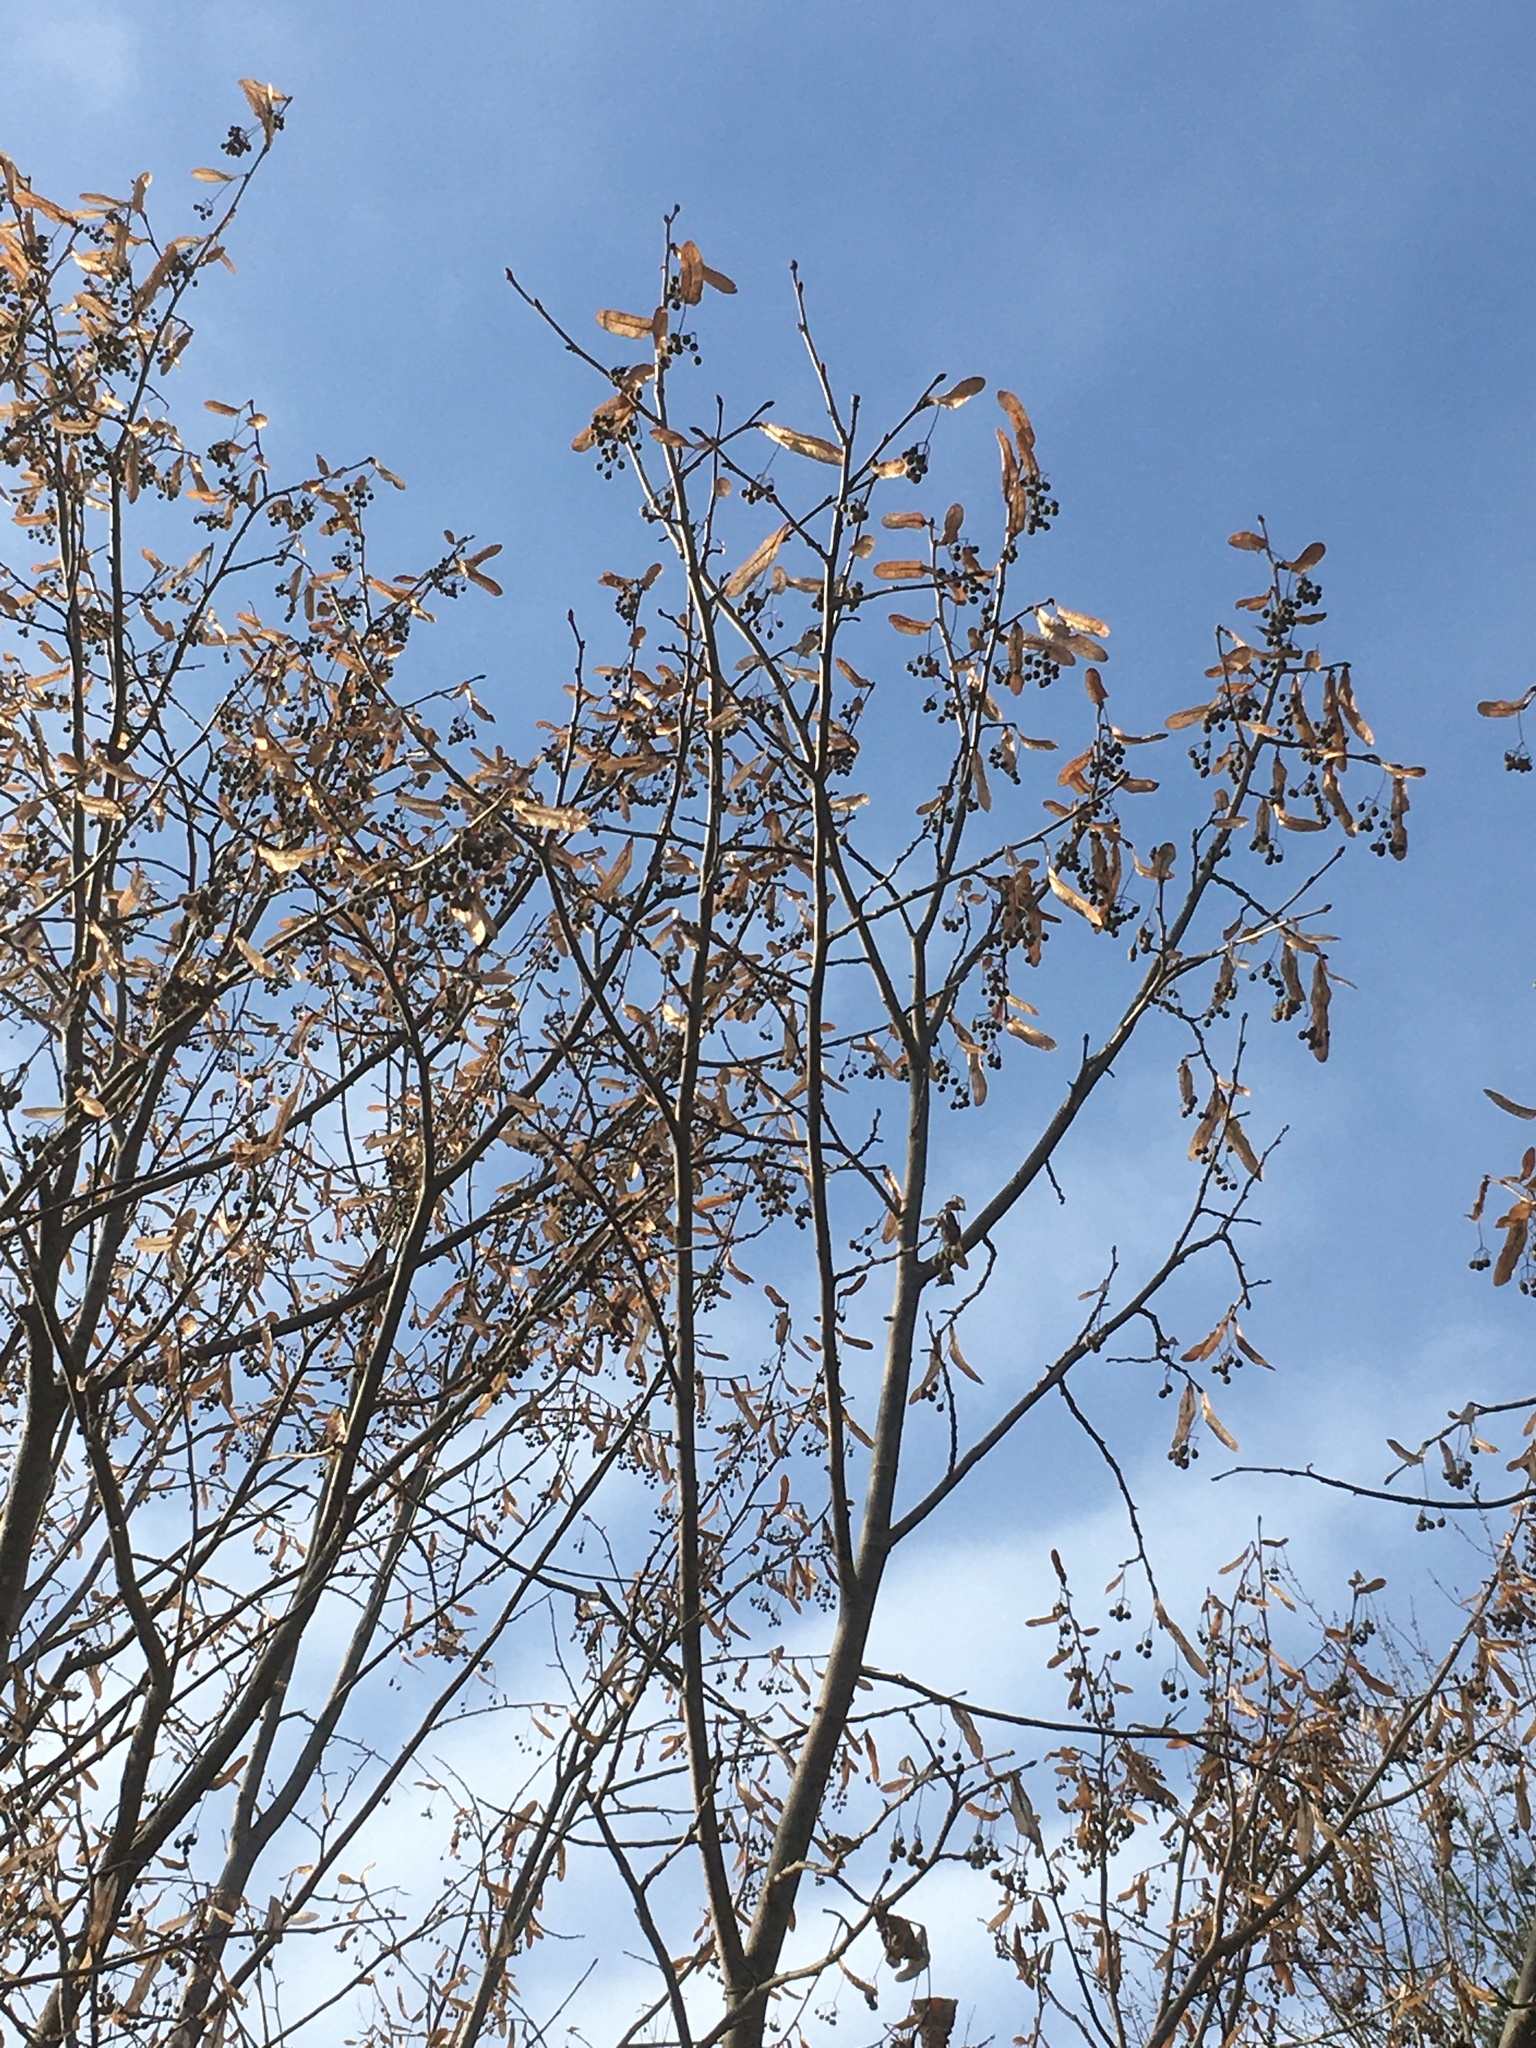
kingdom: Plantae
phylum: Tracheophyta
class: Magnoliopsida
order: Malvales
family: Malvaceae
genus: Tilia
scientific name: Tilia americana
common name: Basswood
